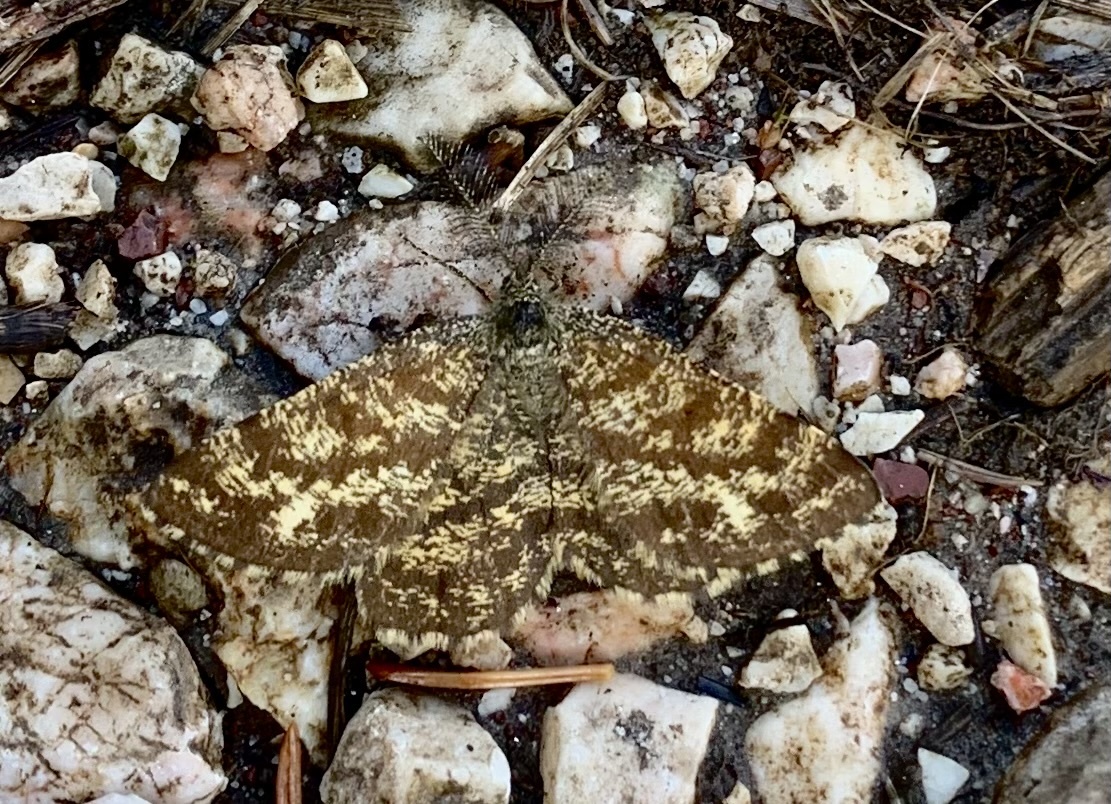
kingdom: Animalia
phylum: Arthropoda
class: Insecta
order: Lepidoptera
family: Geometridae
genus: Ematurga
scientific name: Ematurga atomaria
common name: Common heath
